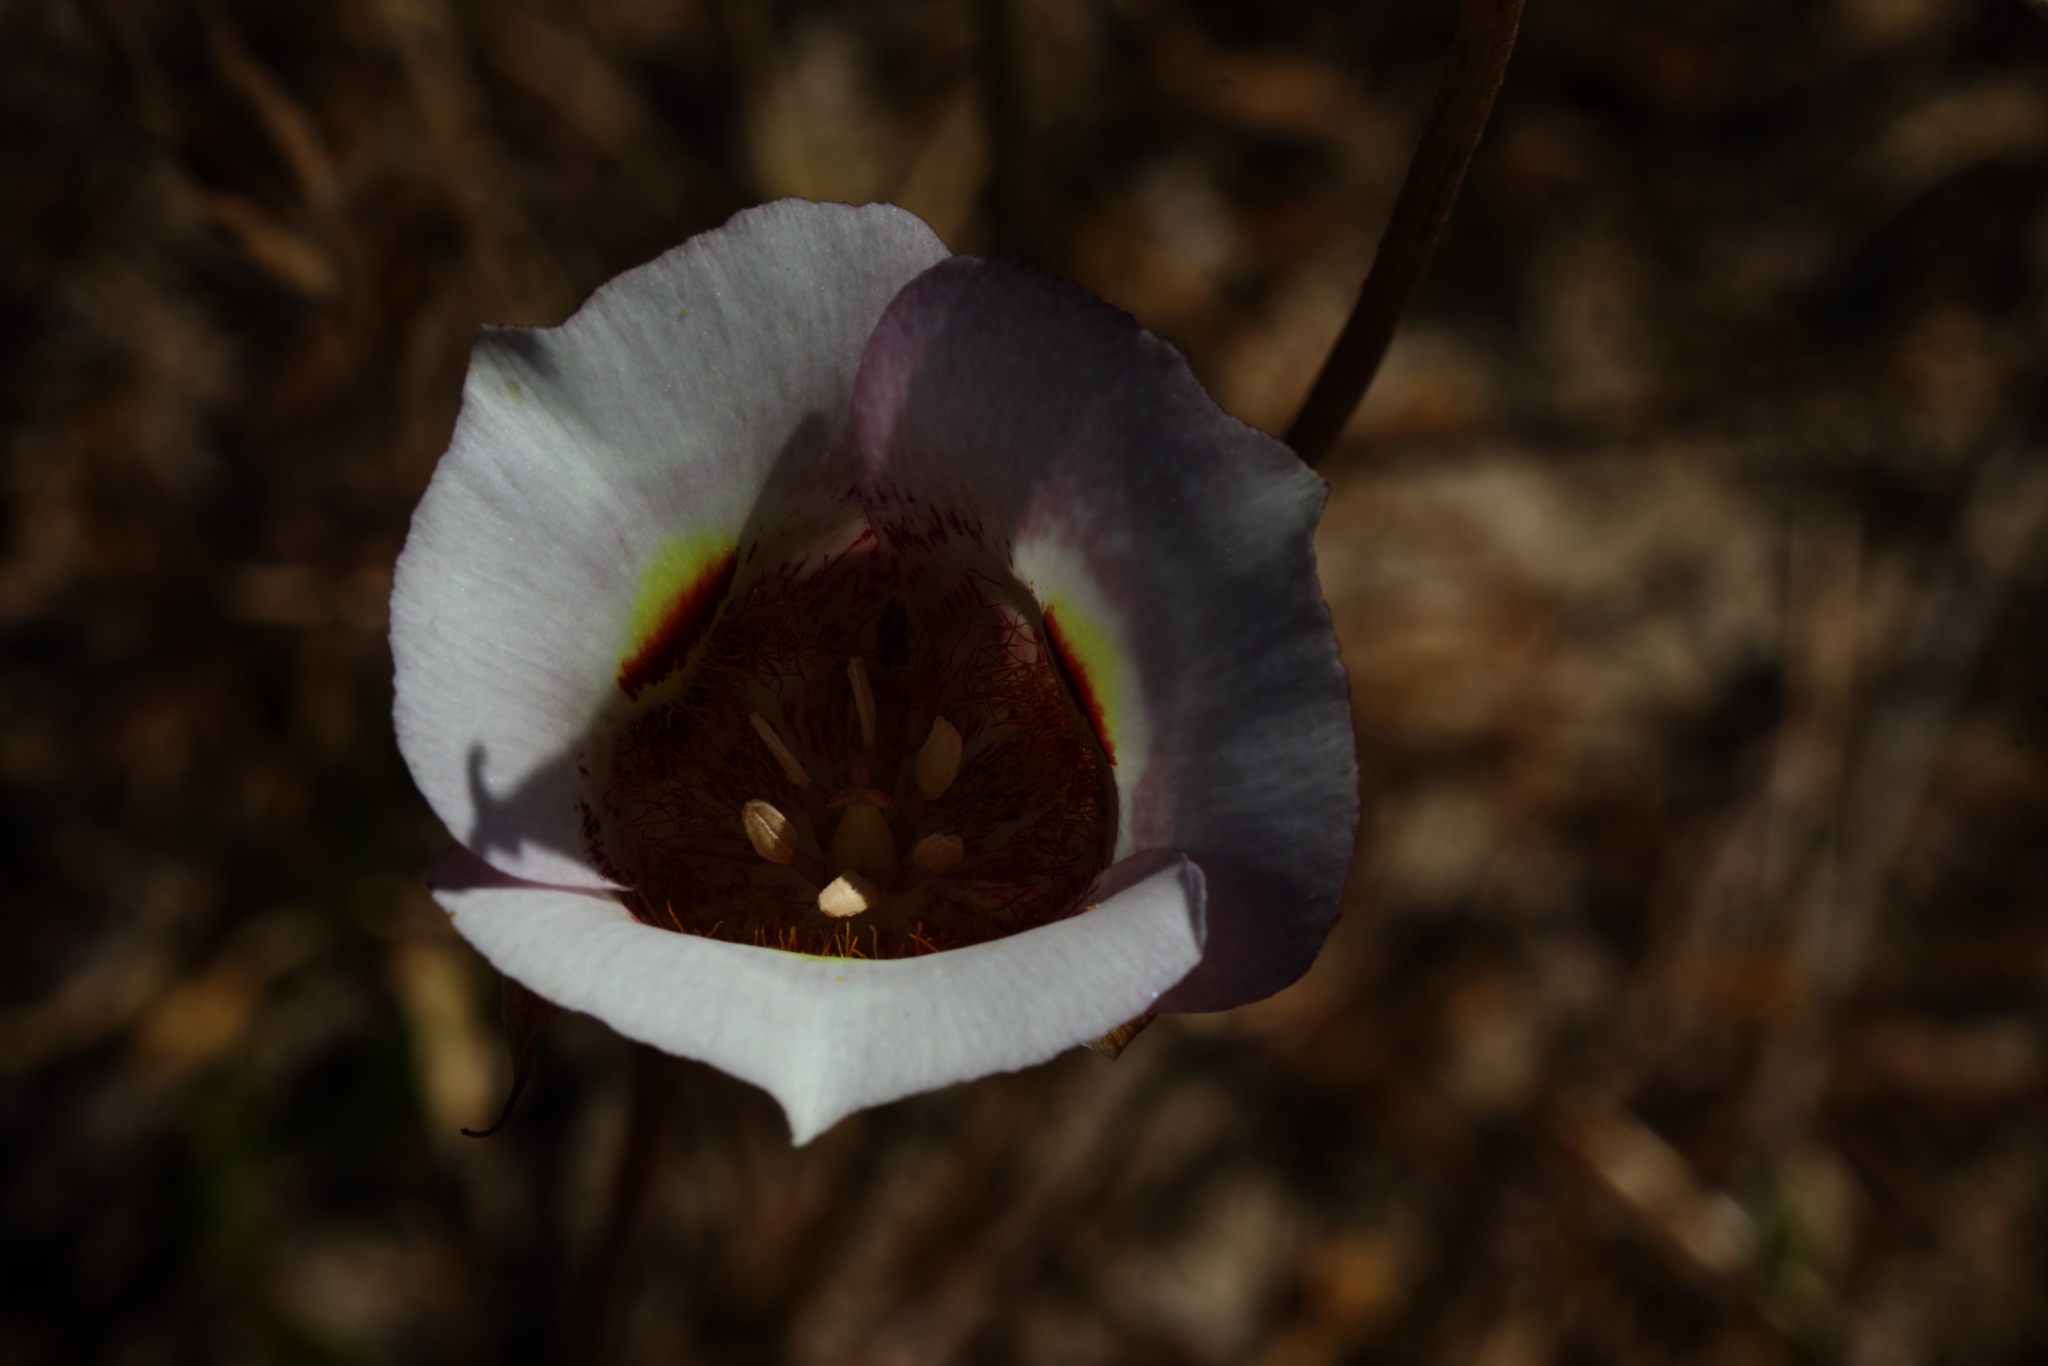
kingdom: Plantae
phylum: Tracheophyta
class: Liliopsida
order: Liliales
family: Liliaceae
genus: Calochortus
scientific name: Calochortus argillosus
